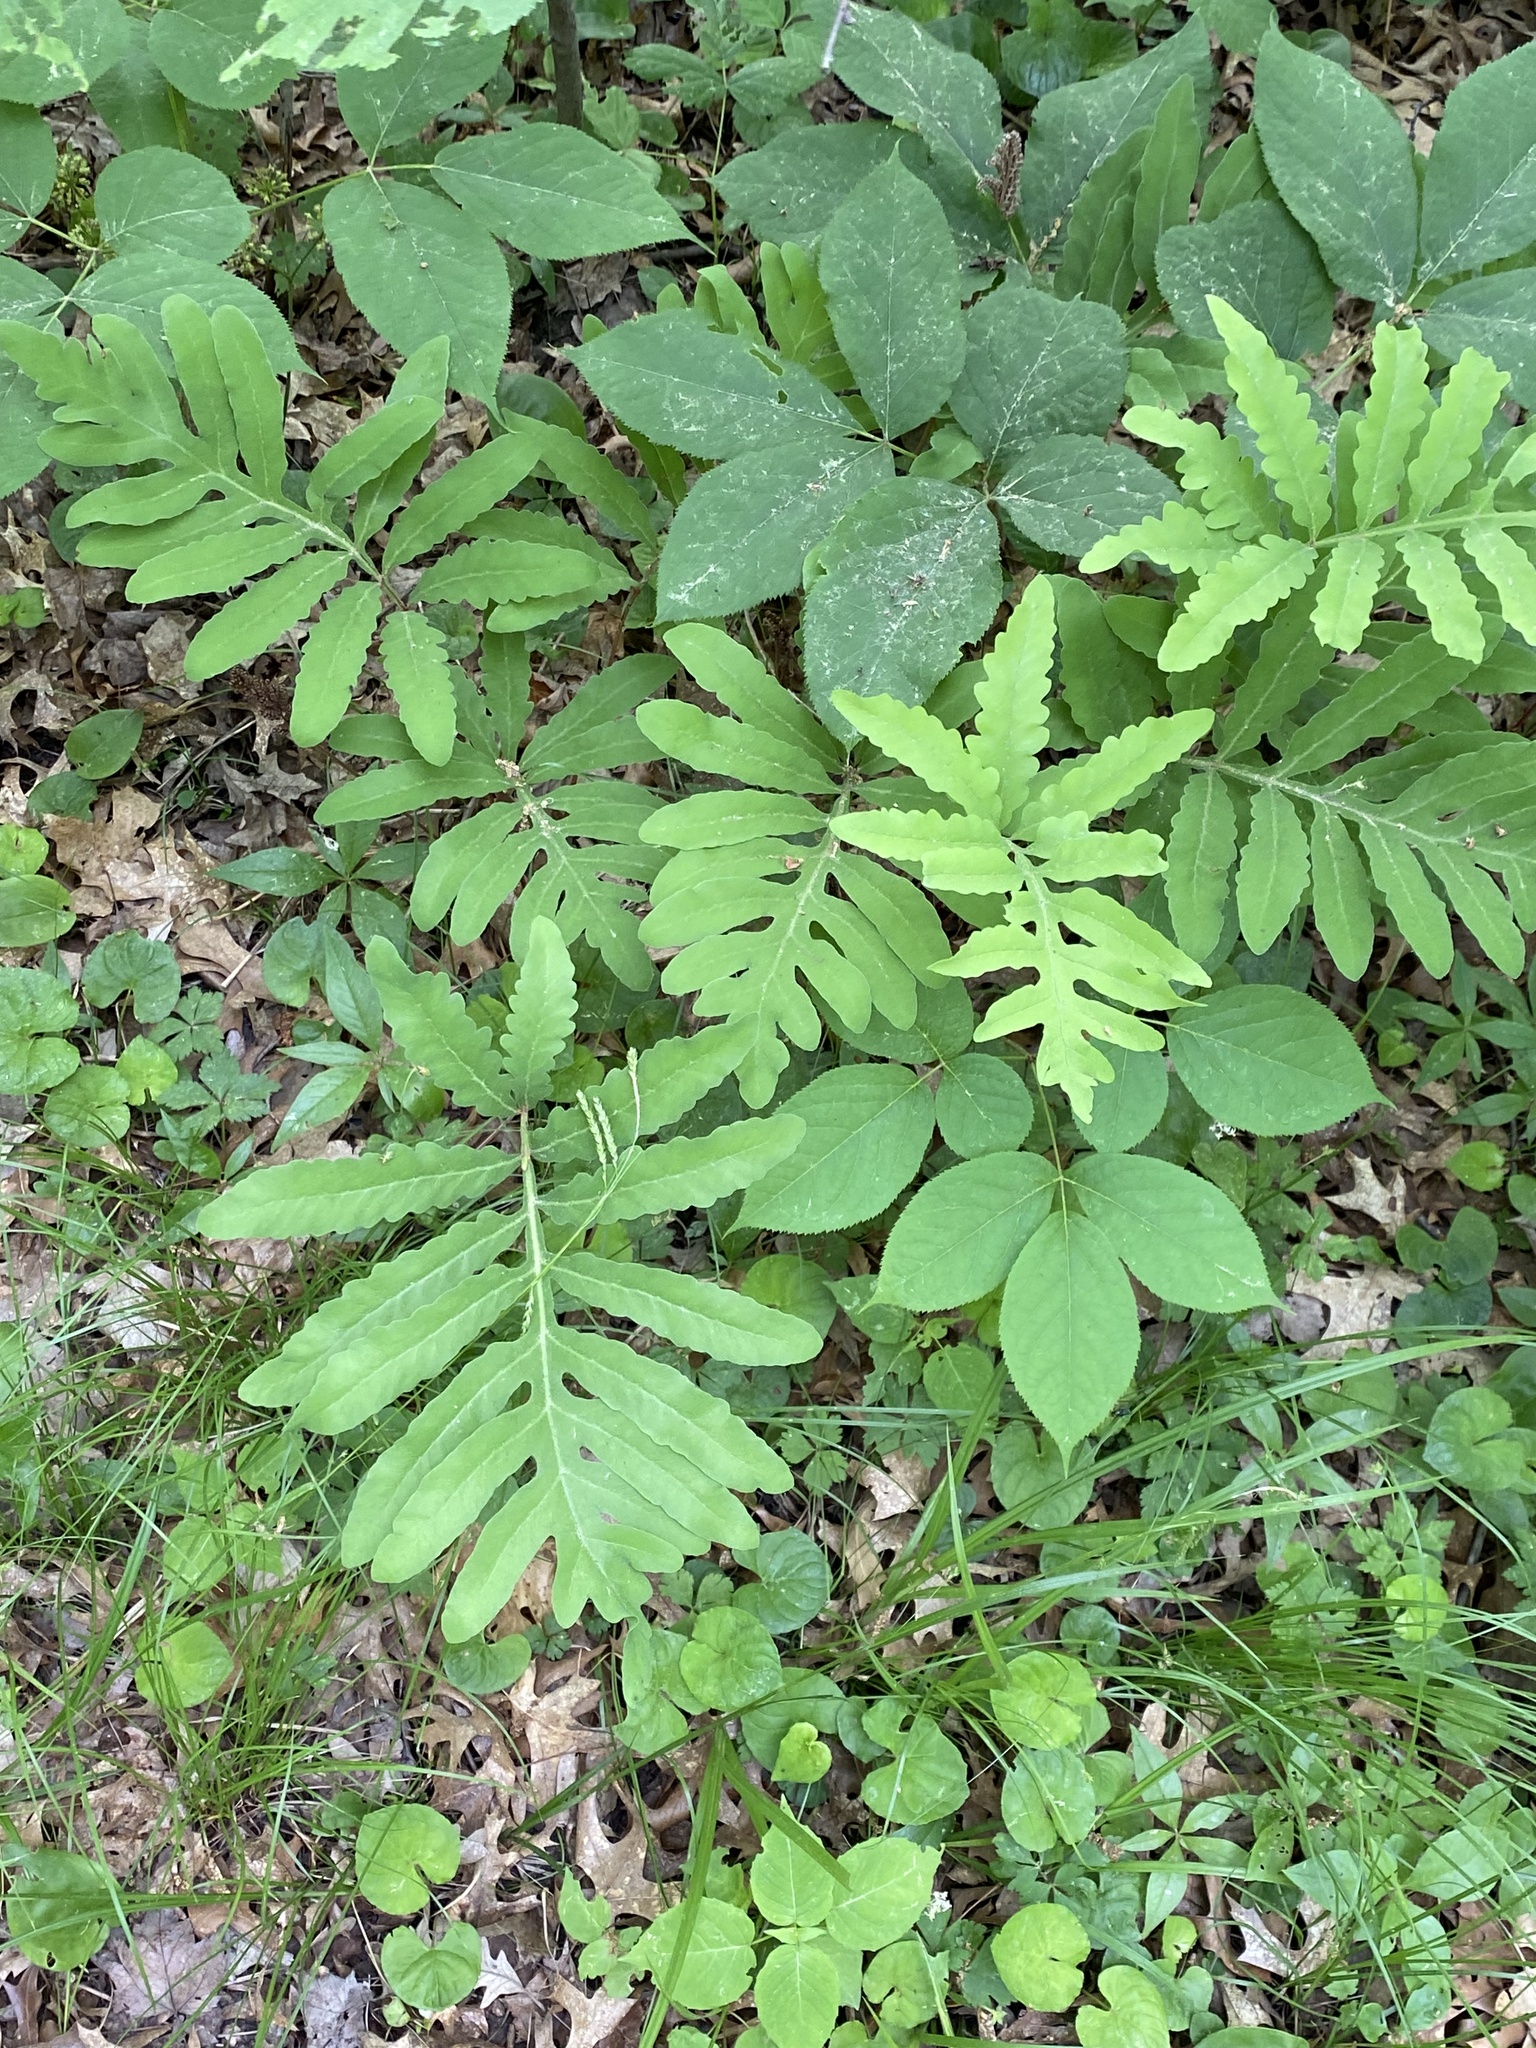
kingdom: Plantae
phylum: Tracheophyta
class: Polypodiopsida
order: Polypodiales
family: Onocleaceae
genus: Onoclea
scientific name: Onoclea sensibilis
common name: Sensitive fern
